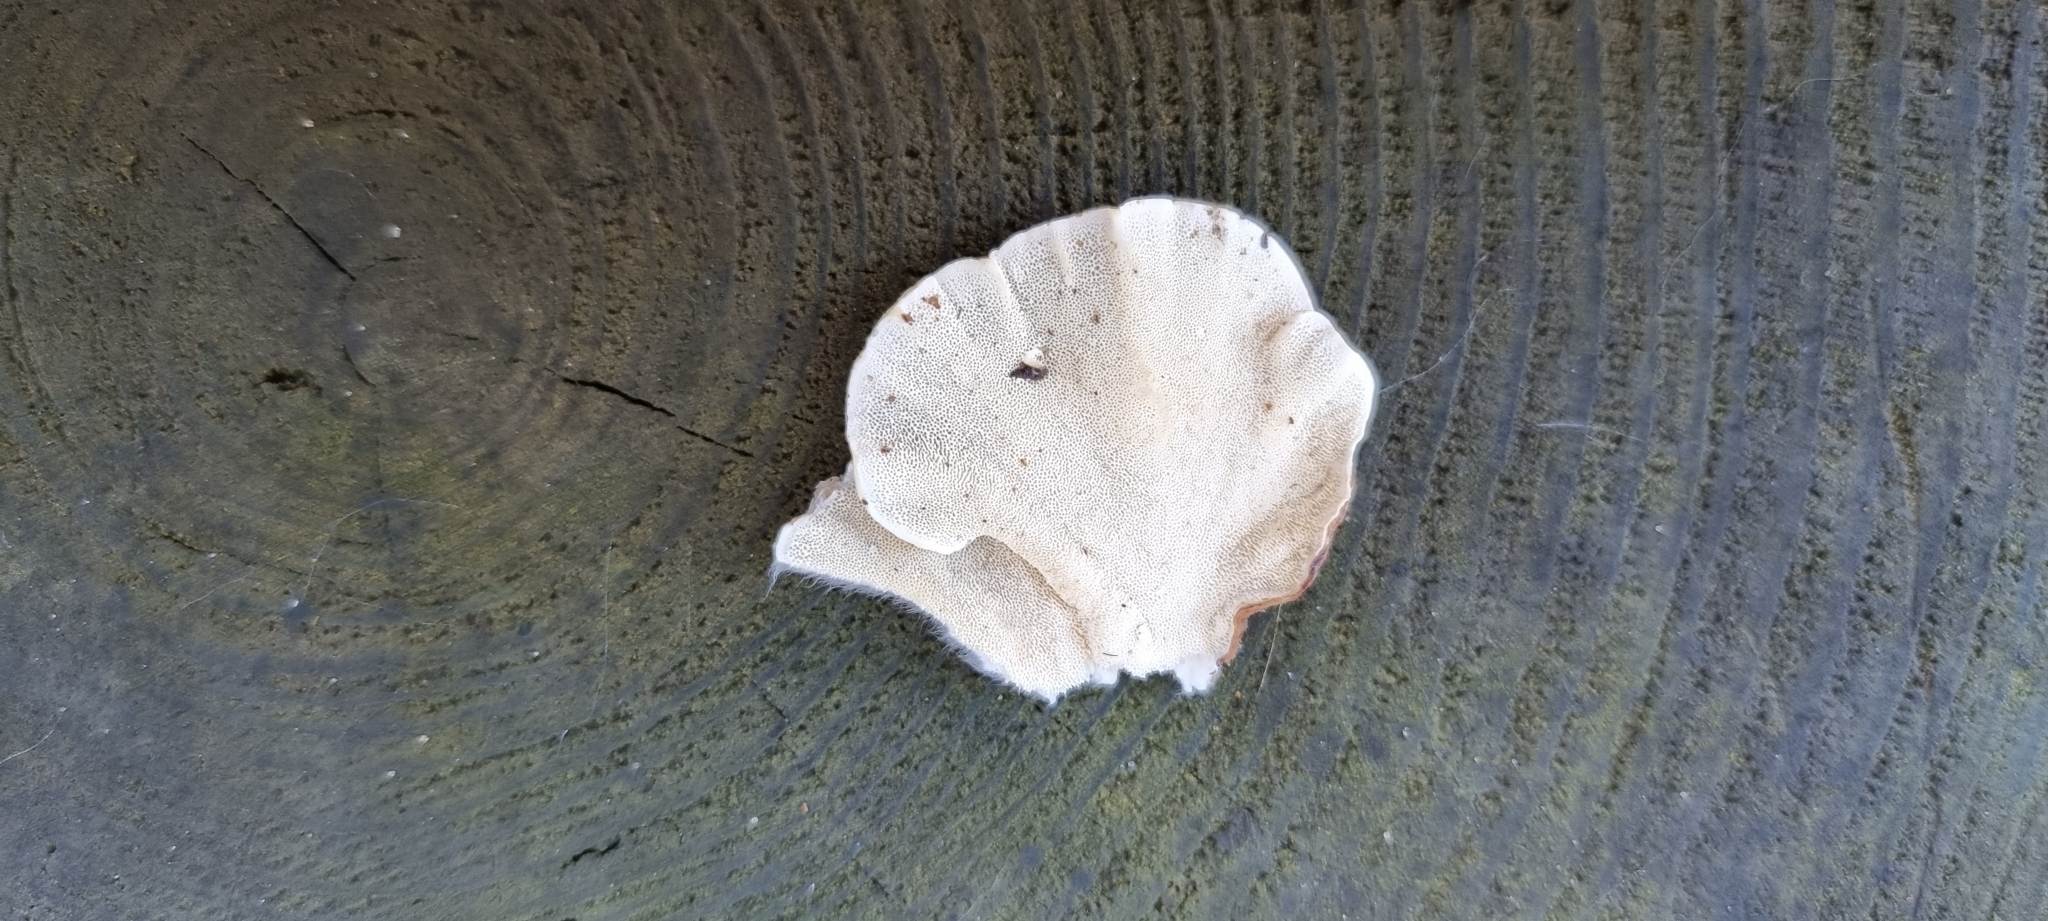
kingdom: Fungi
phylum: Basidiomycota
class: Agaricomycetes
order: Polyporales
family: Polyporaceae
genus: Trametes
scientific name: Trametes versicolor
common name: Turkeytail
